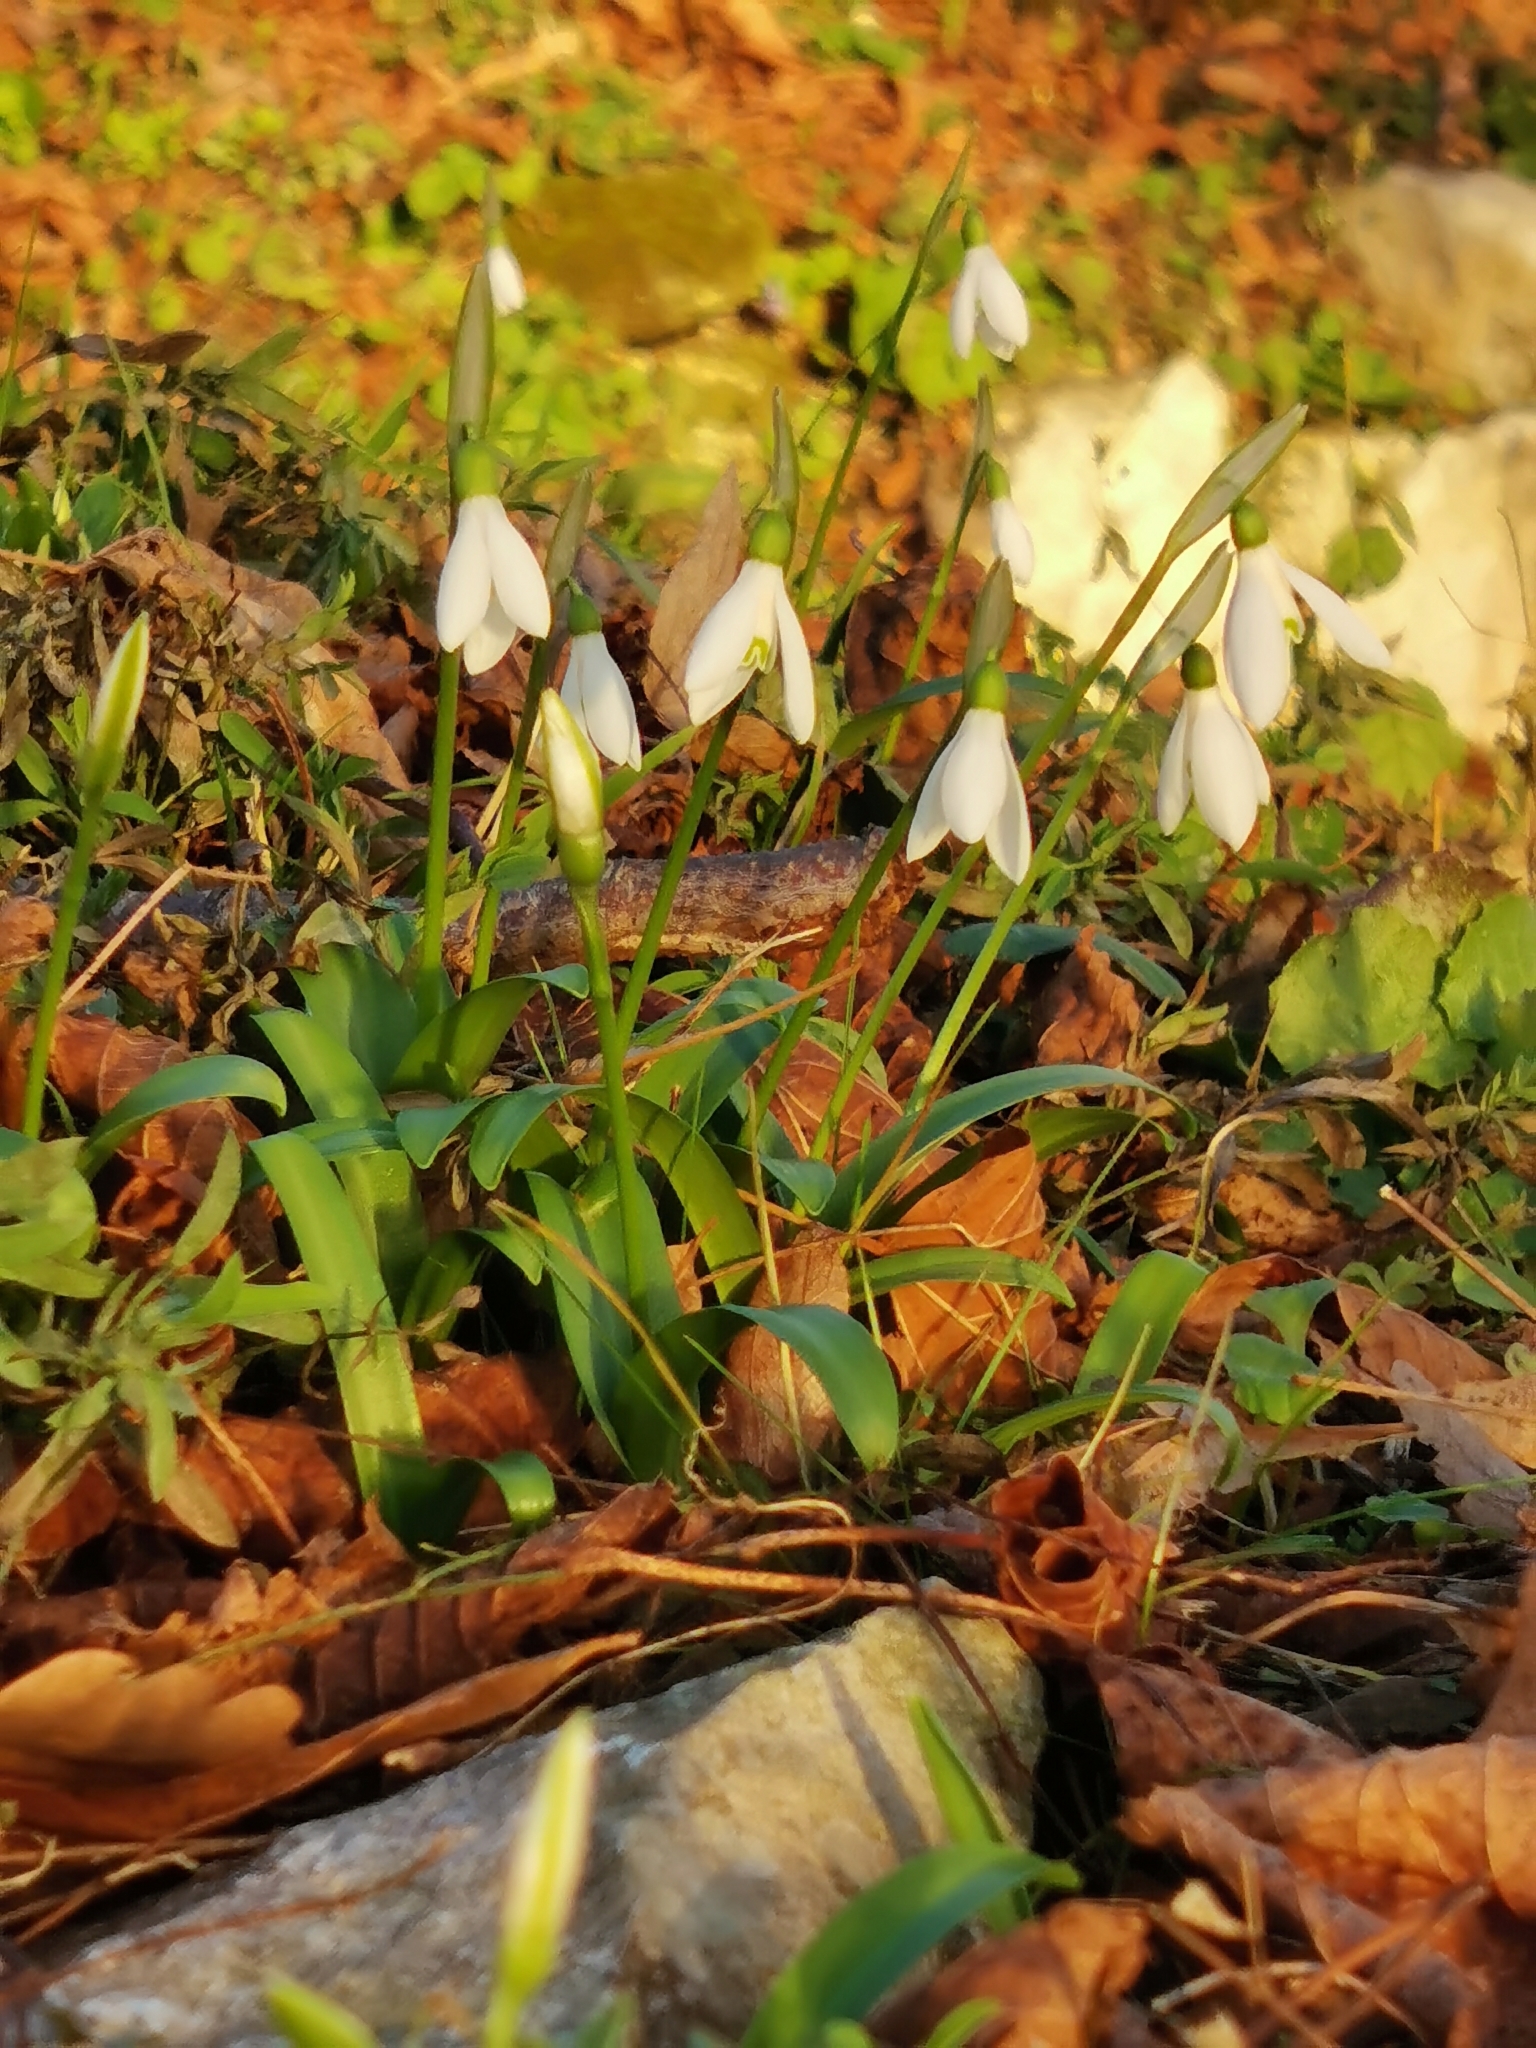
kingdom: Plantae
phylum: Tracheophyta
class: Liliopsida
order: Asparagales
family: Amaryllidaceae
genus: Galanthus
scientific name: Galanthus woronowii
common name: Green snowdrop
